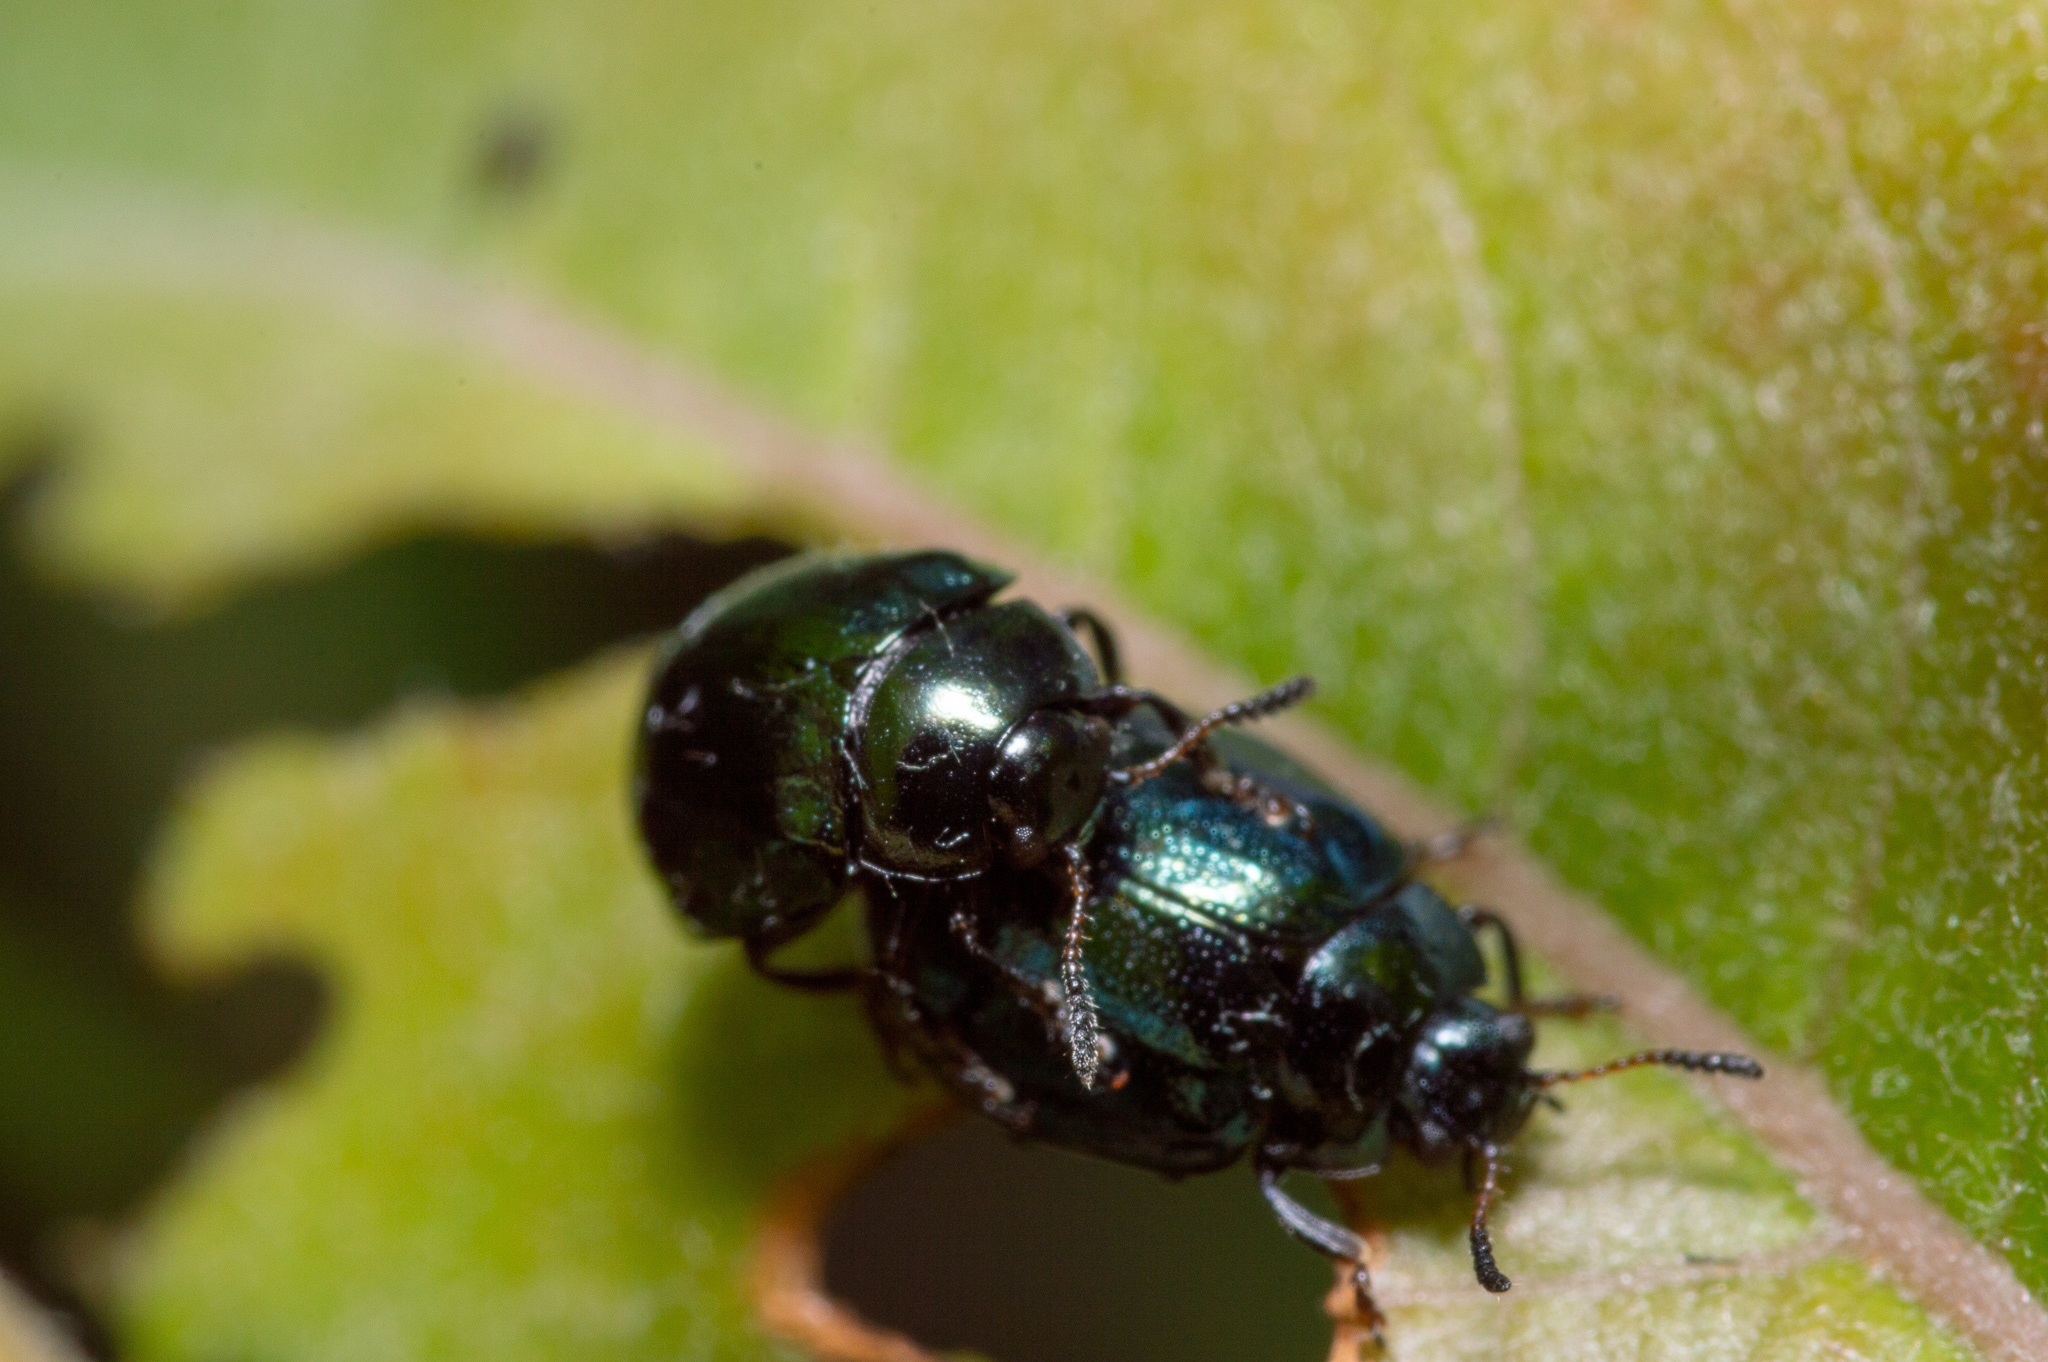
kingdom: Animalia
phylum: Arthropoda
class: Insecta
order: Coleoptera
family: Chrysomelidae
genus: Plagiodera
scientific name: Plagiodera versicolora
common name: Imported willow leaf beetle
